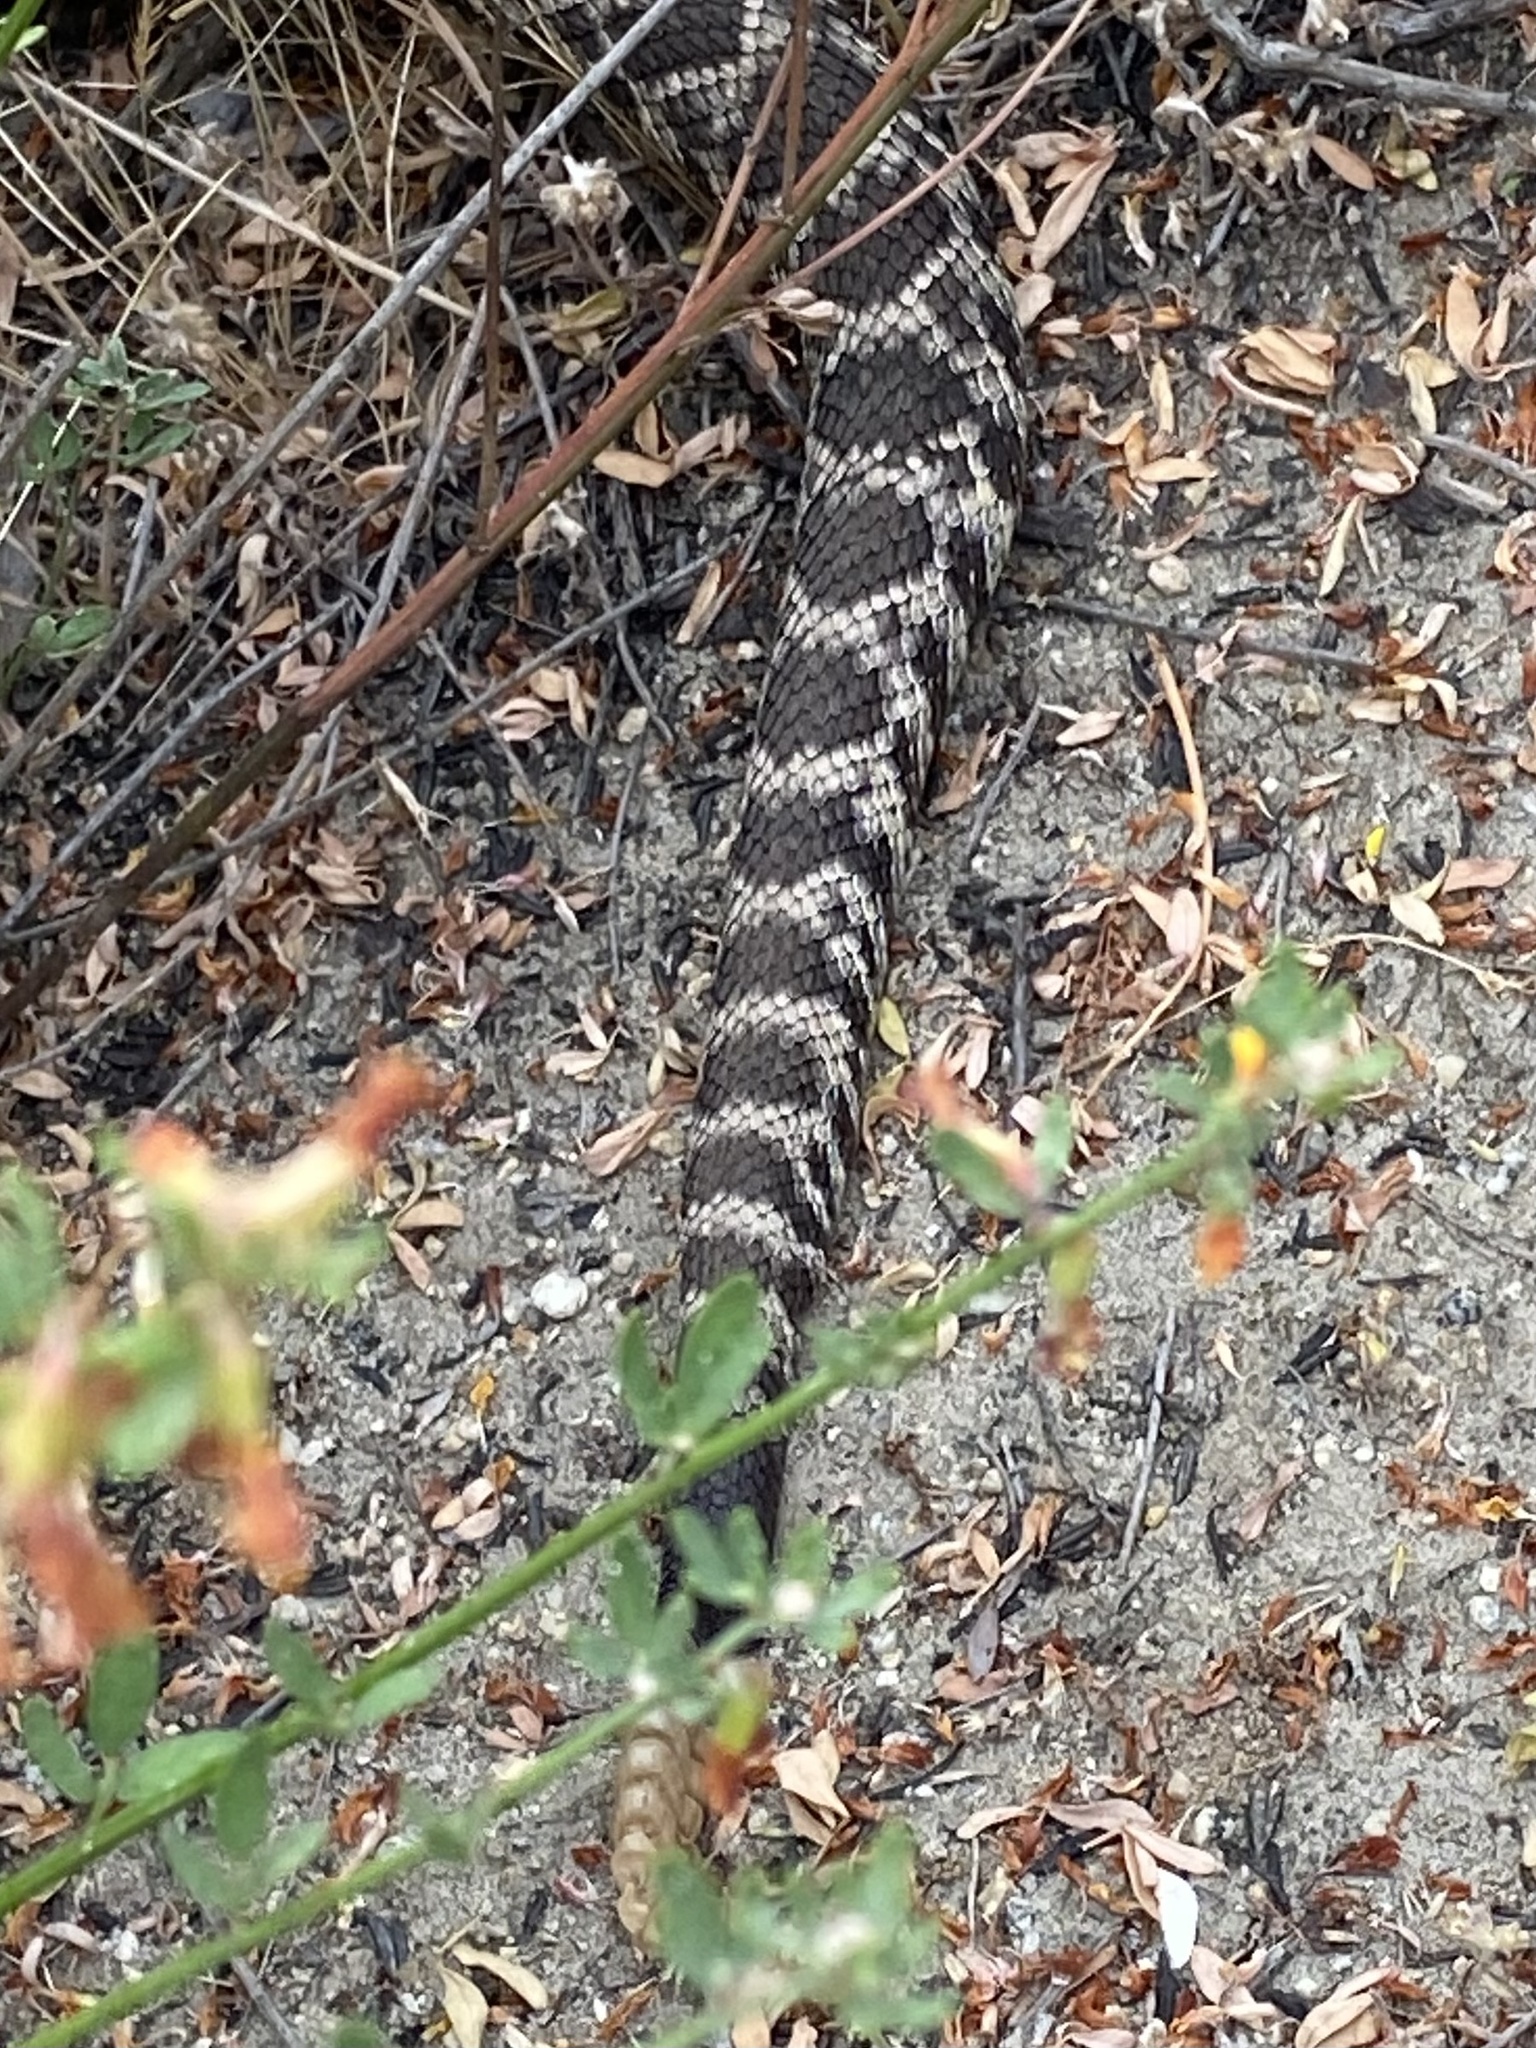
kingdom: Animalia
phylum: Chordata
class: Squamata
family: Viperidae
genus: Crotalus
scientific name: Crotalus oreganus
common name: Abyssus
